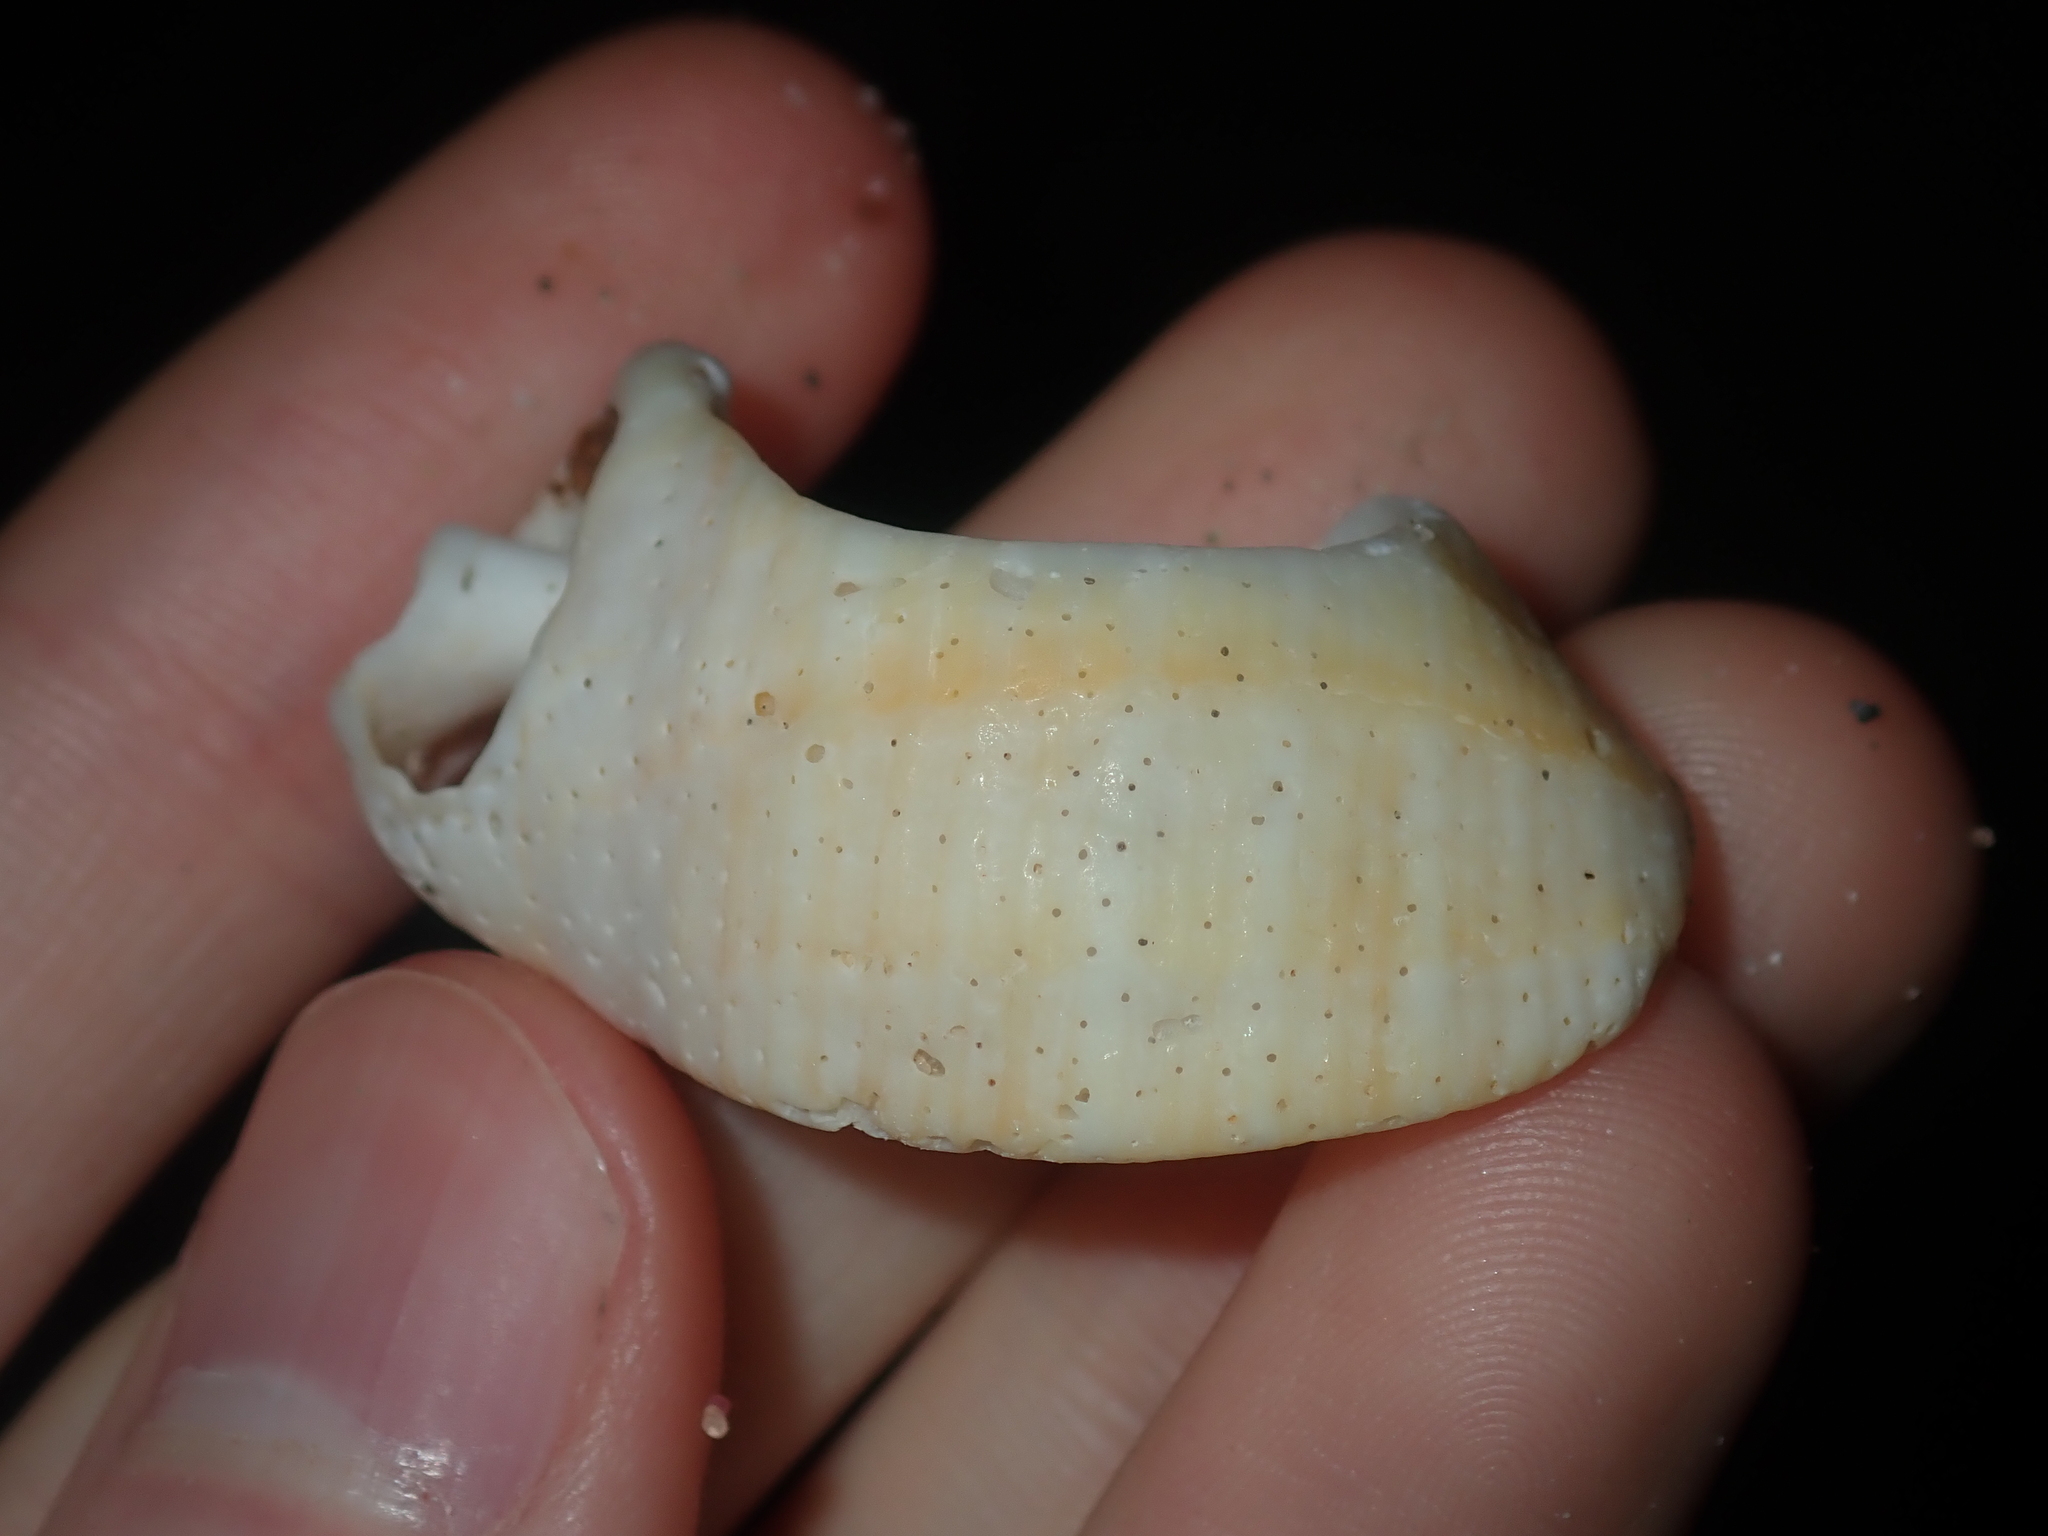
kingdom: Animalia
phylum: Mollusca
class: Gastropoda
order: Neogastropoda
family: Muricidae
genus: Dicathais
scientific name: Dicathais orbita
